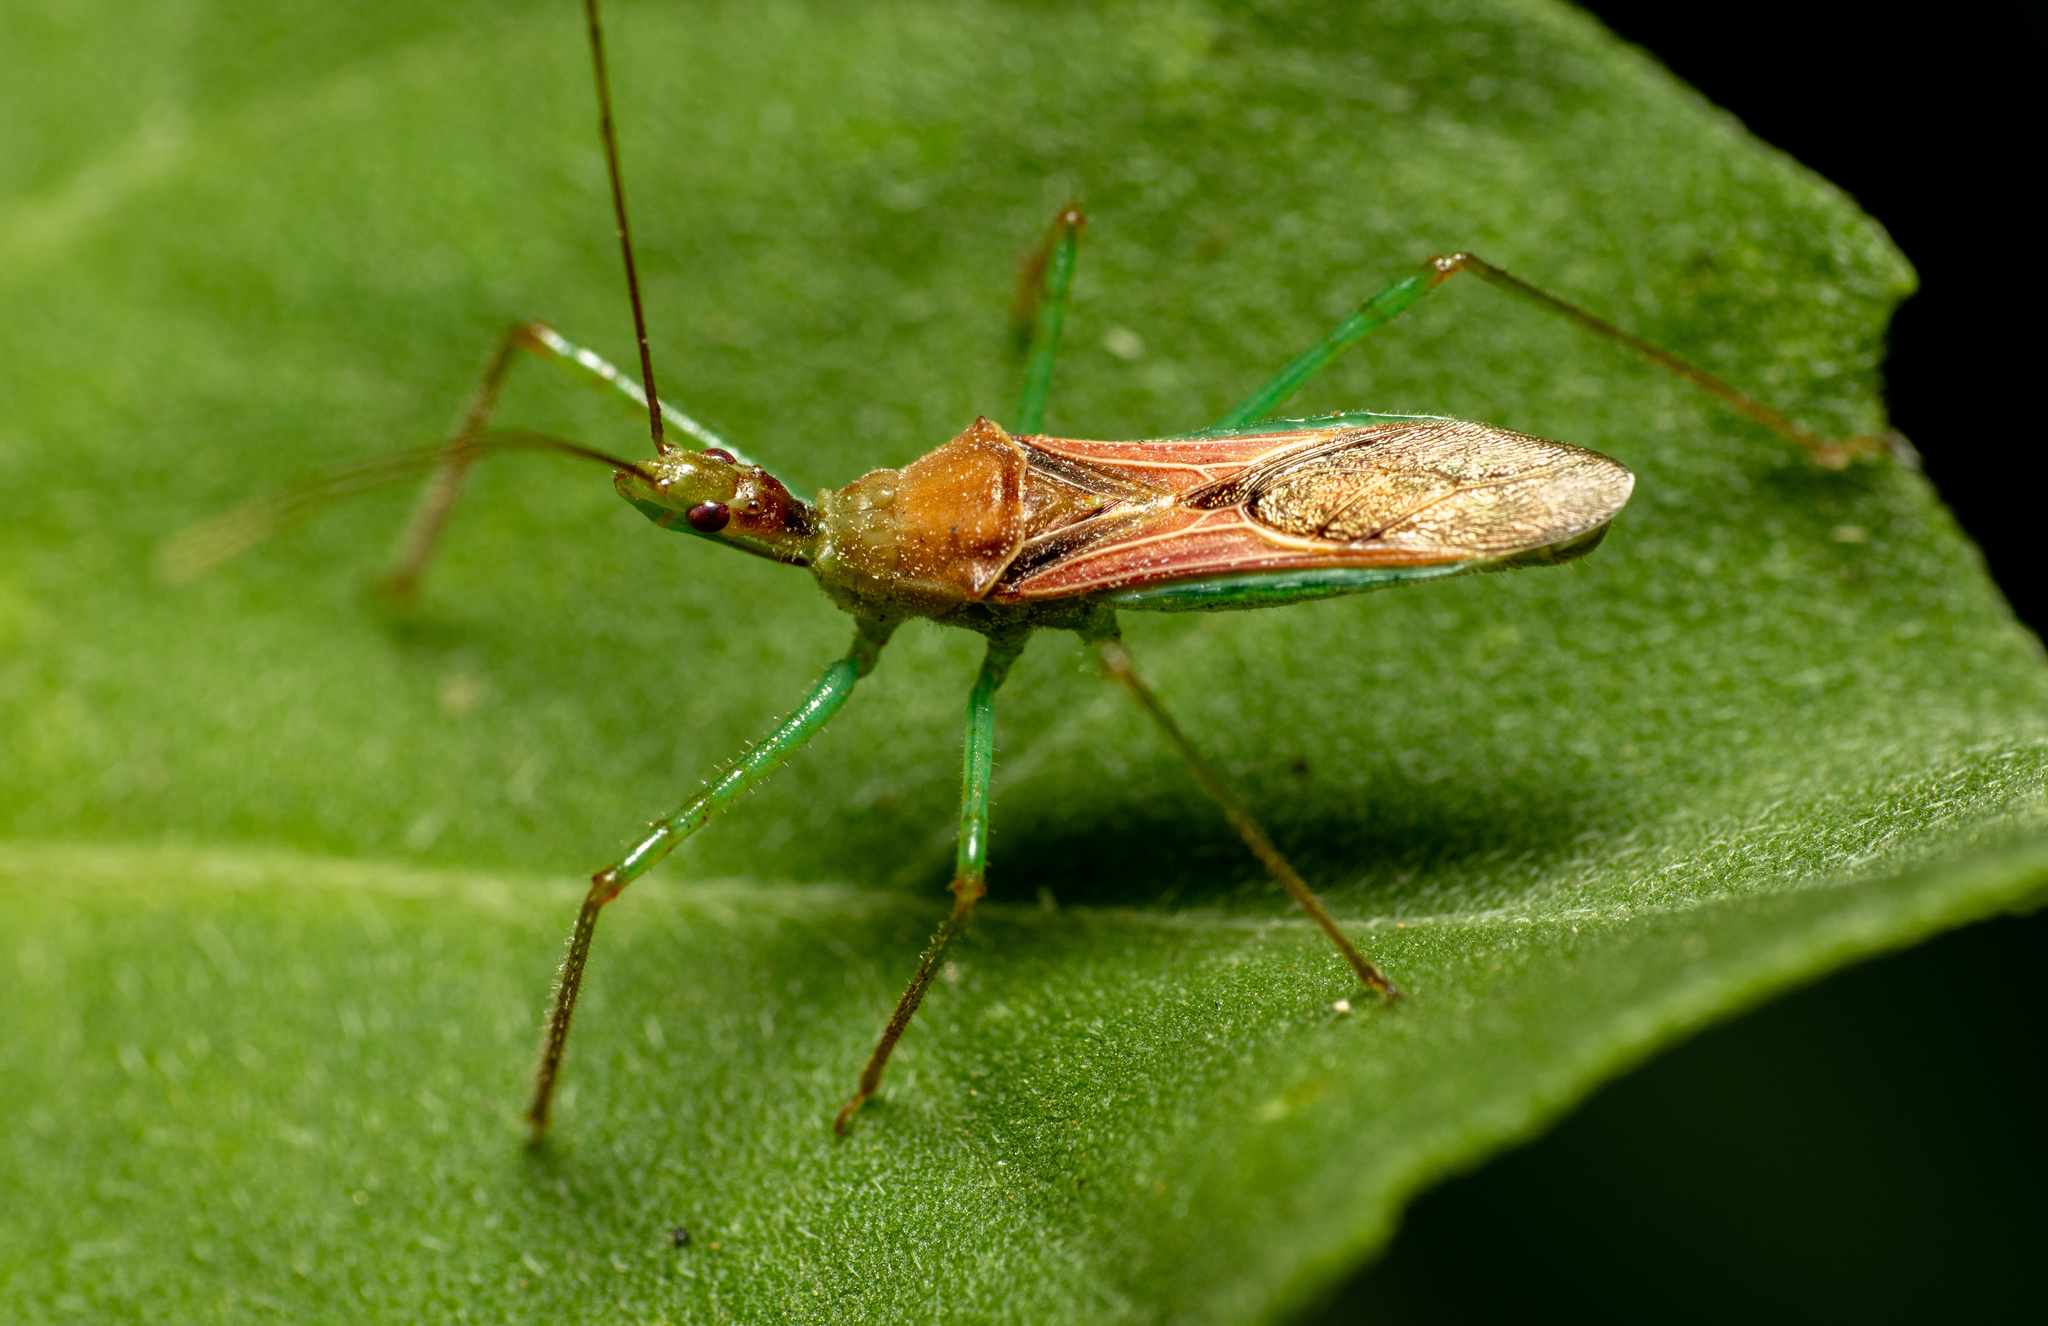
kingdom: Animalia
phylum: Arthropoda
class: Insecta
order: Hemiptera
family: Reduviidae
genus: Zelus
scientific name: Zelus renardii
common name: Assassin bug
